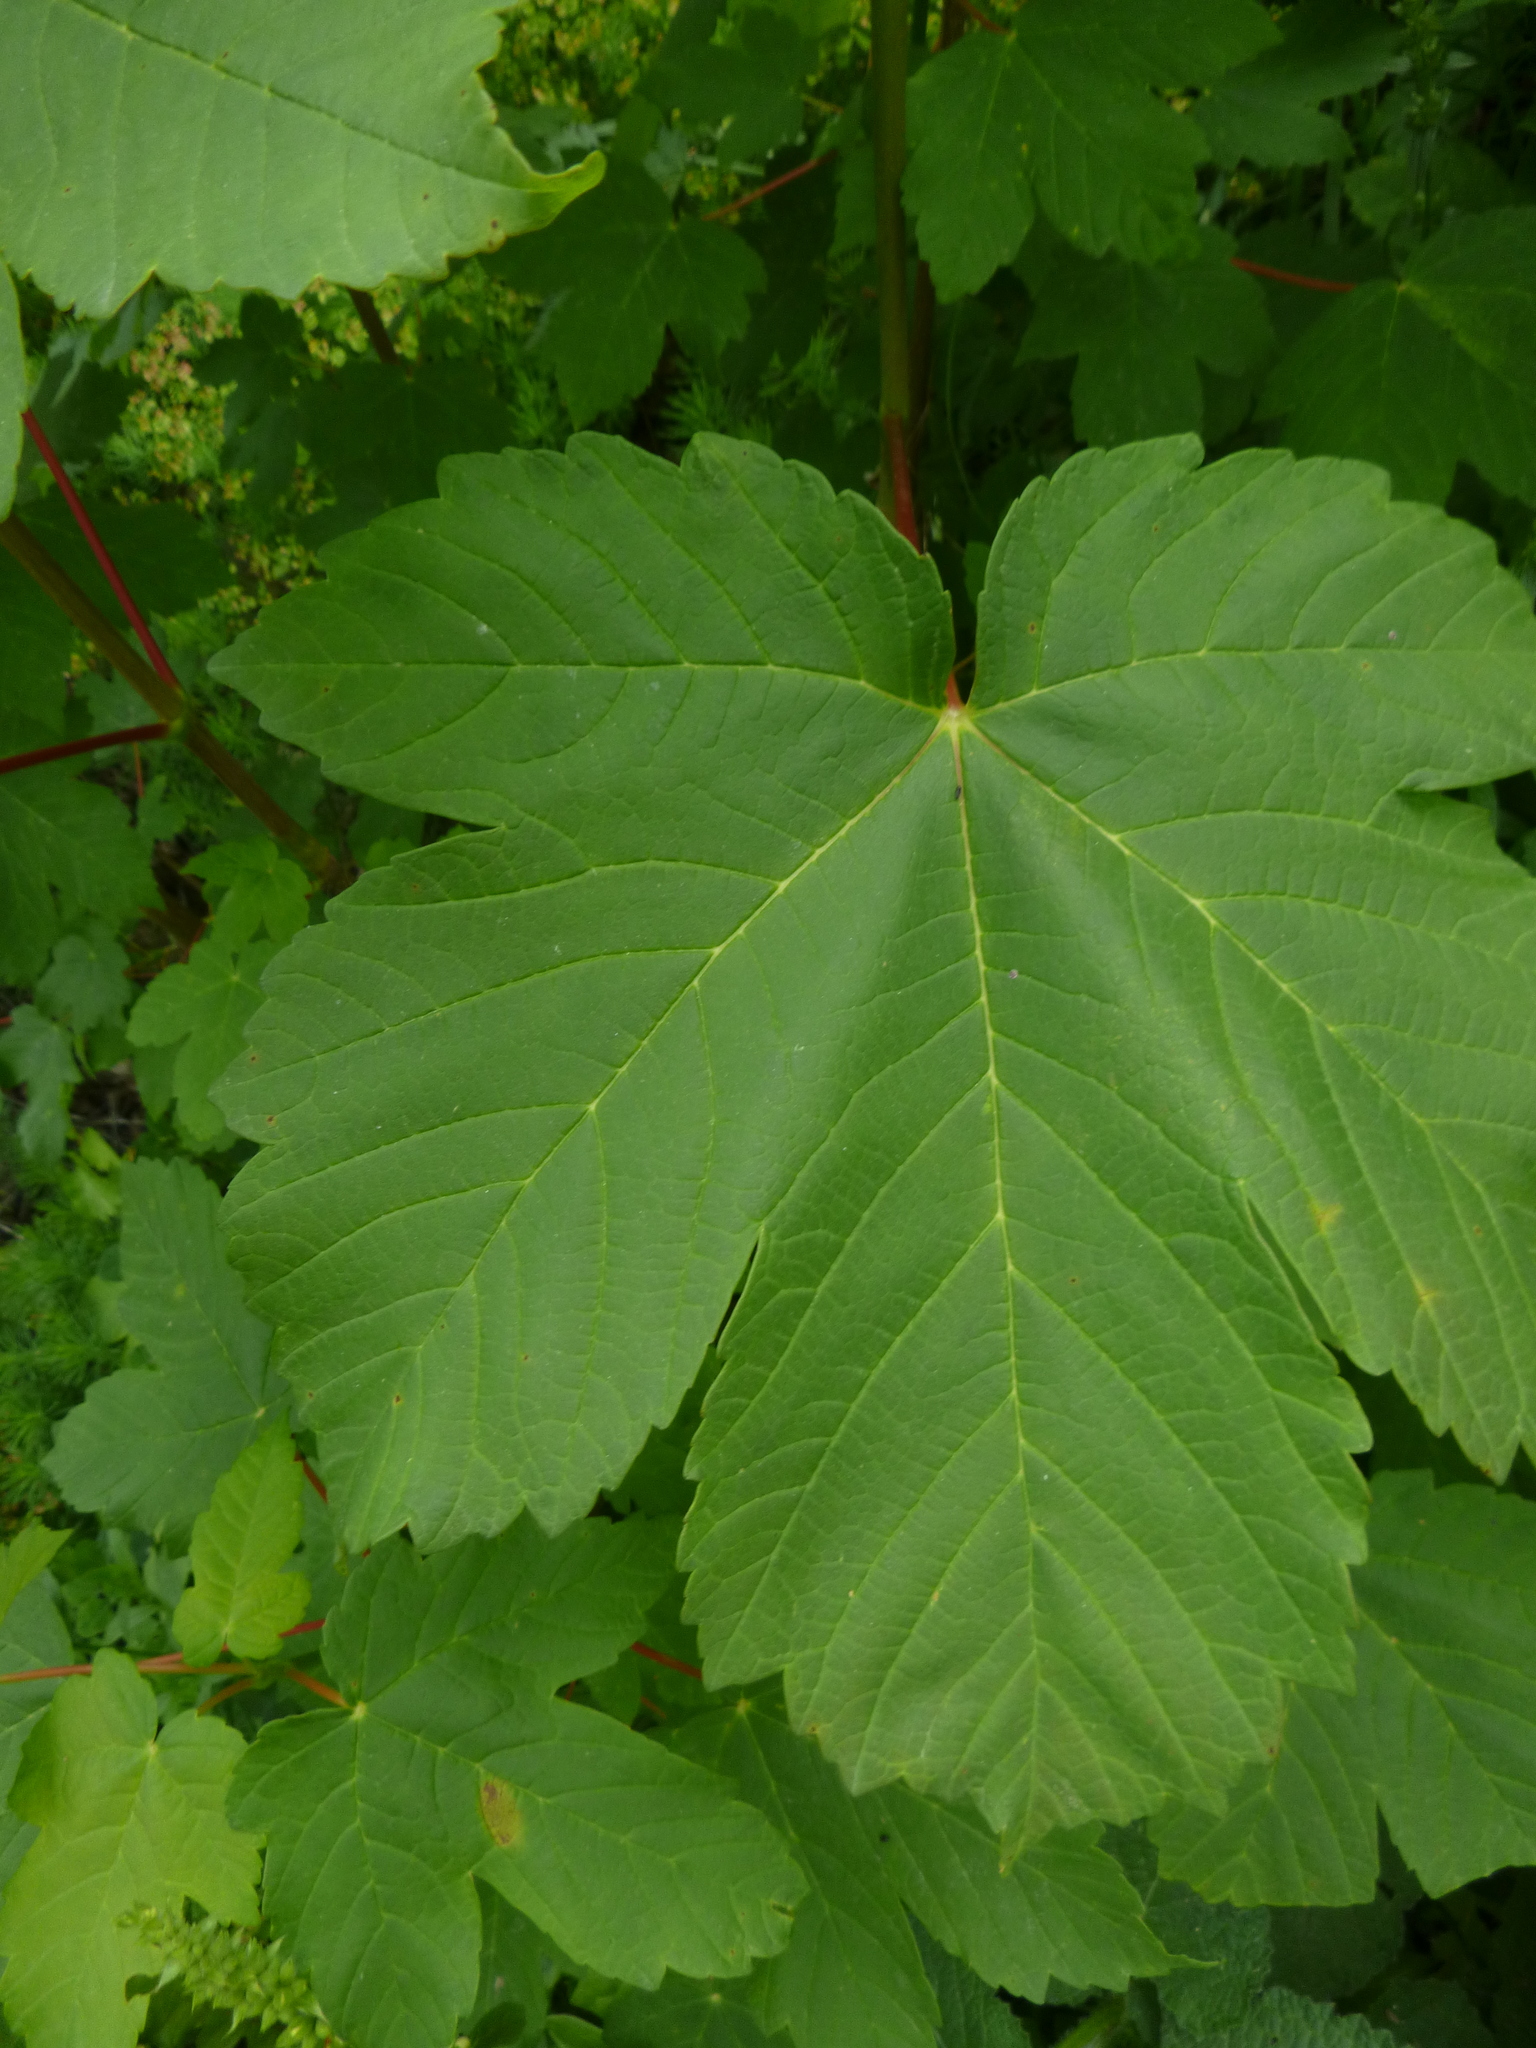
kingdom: Plantae
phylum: Tracheophyta
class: Magnoliopsida
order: Sapindales
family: Sapindaceae
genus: Acer
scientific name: Acer pseudoplatanus
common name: Sycamore
